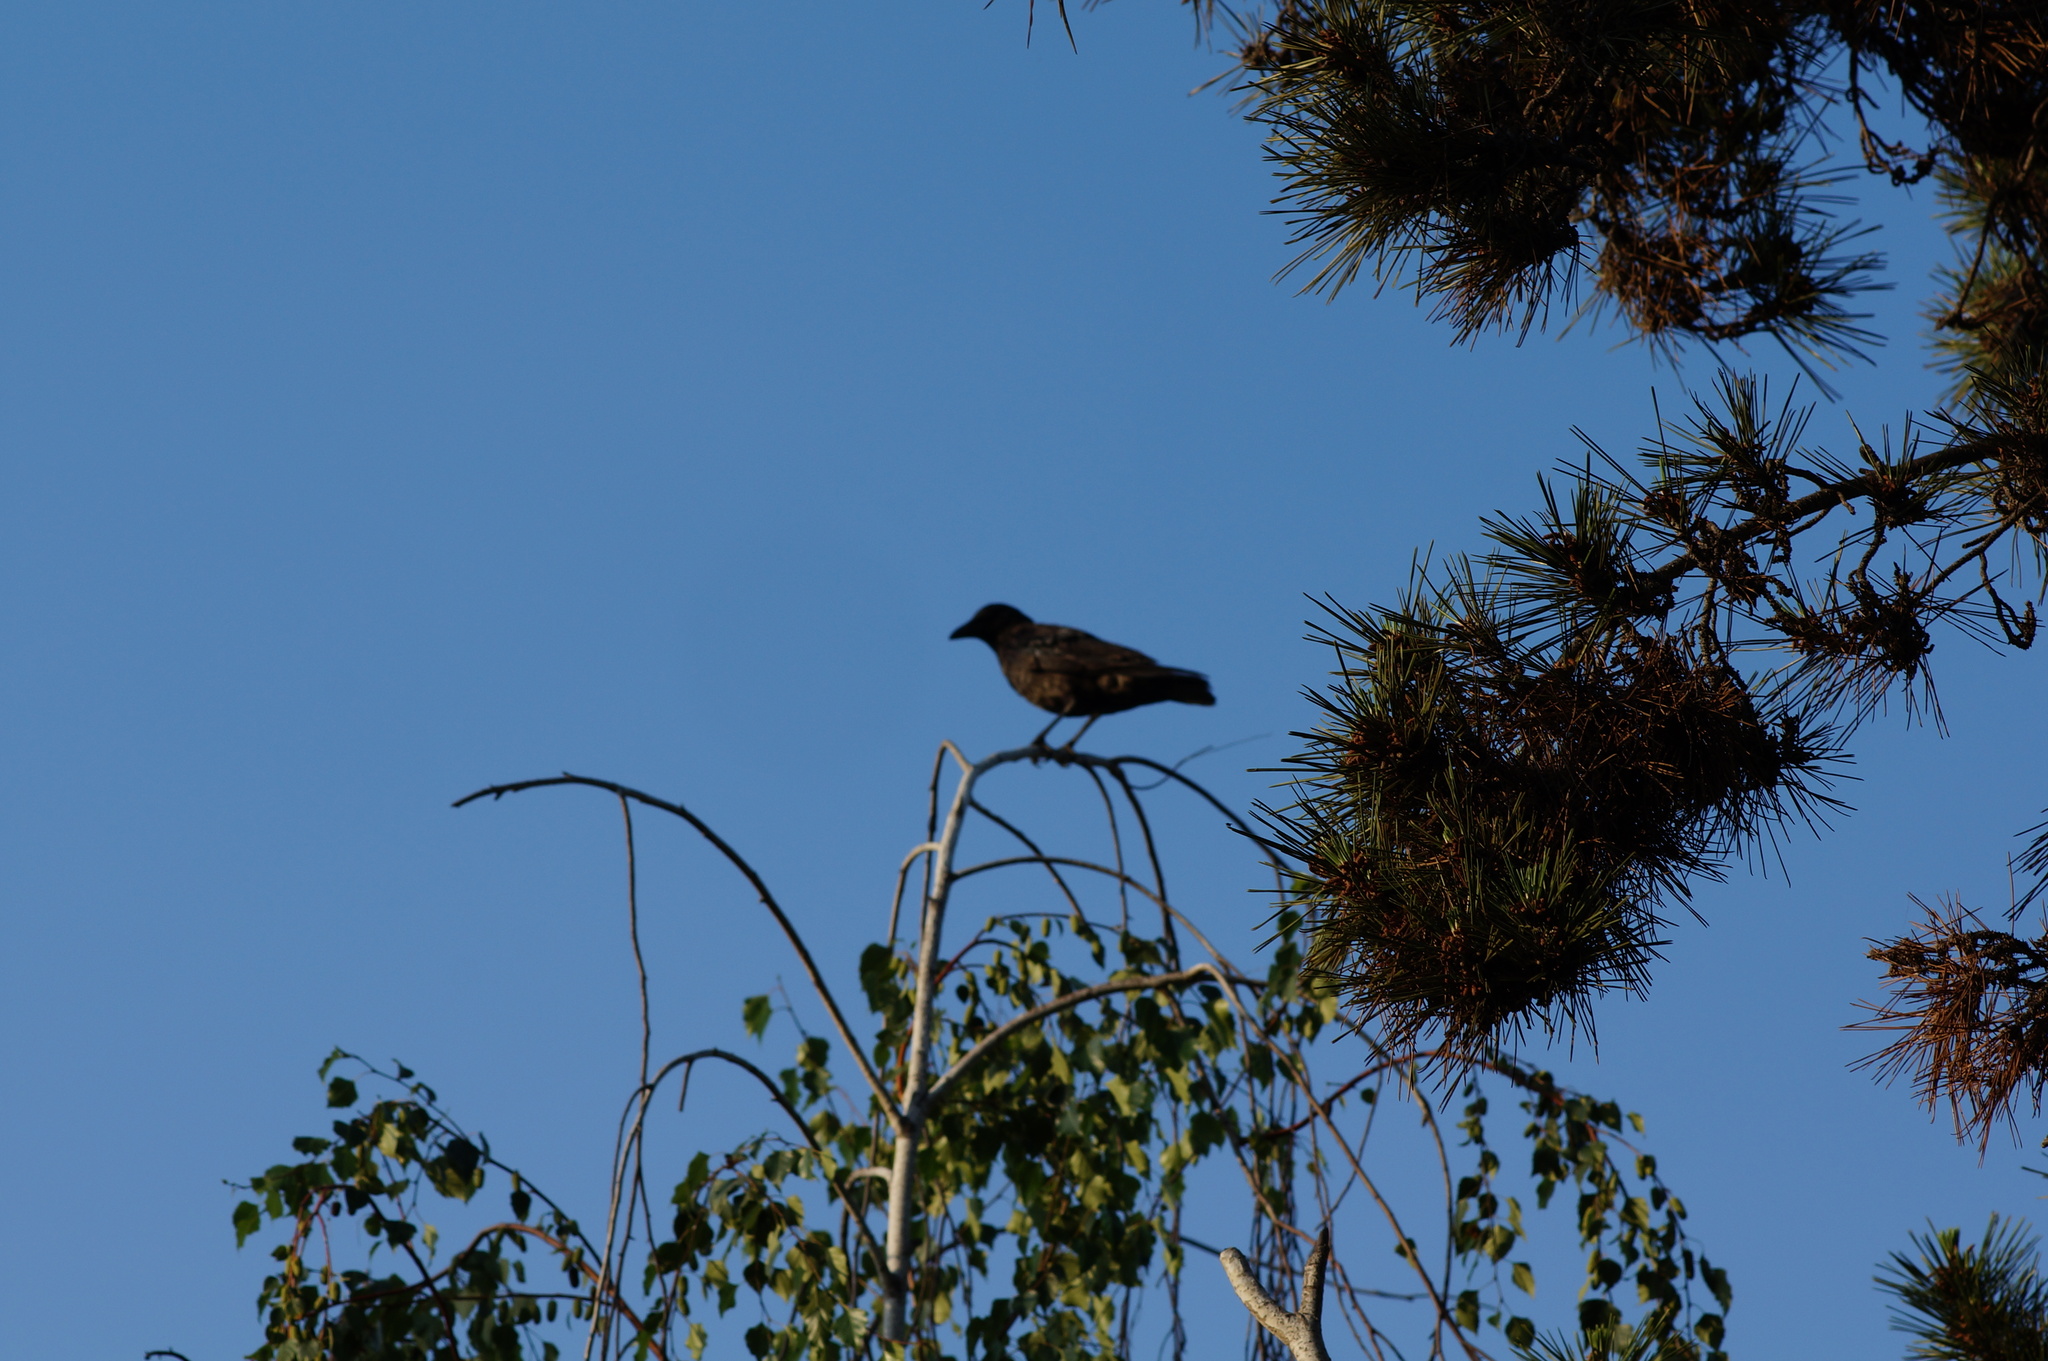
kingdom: Animalia
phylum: Chordata
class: Aves
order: Passeriformes
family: Corvidae
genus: Corvus
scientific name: Corvus brachyrhynchos
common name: American crow
